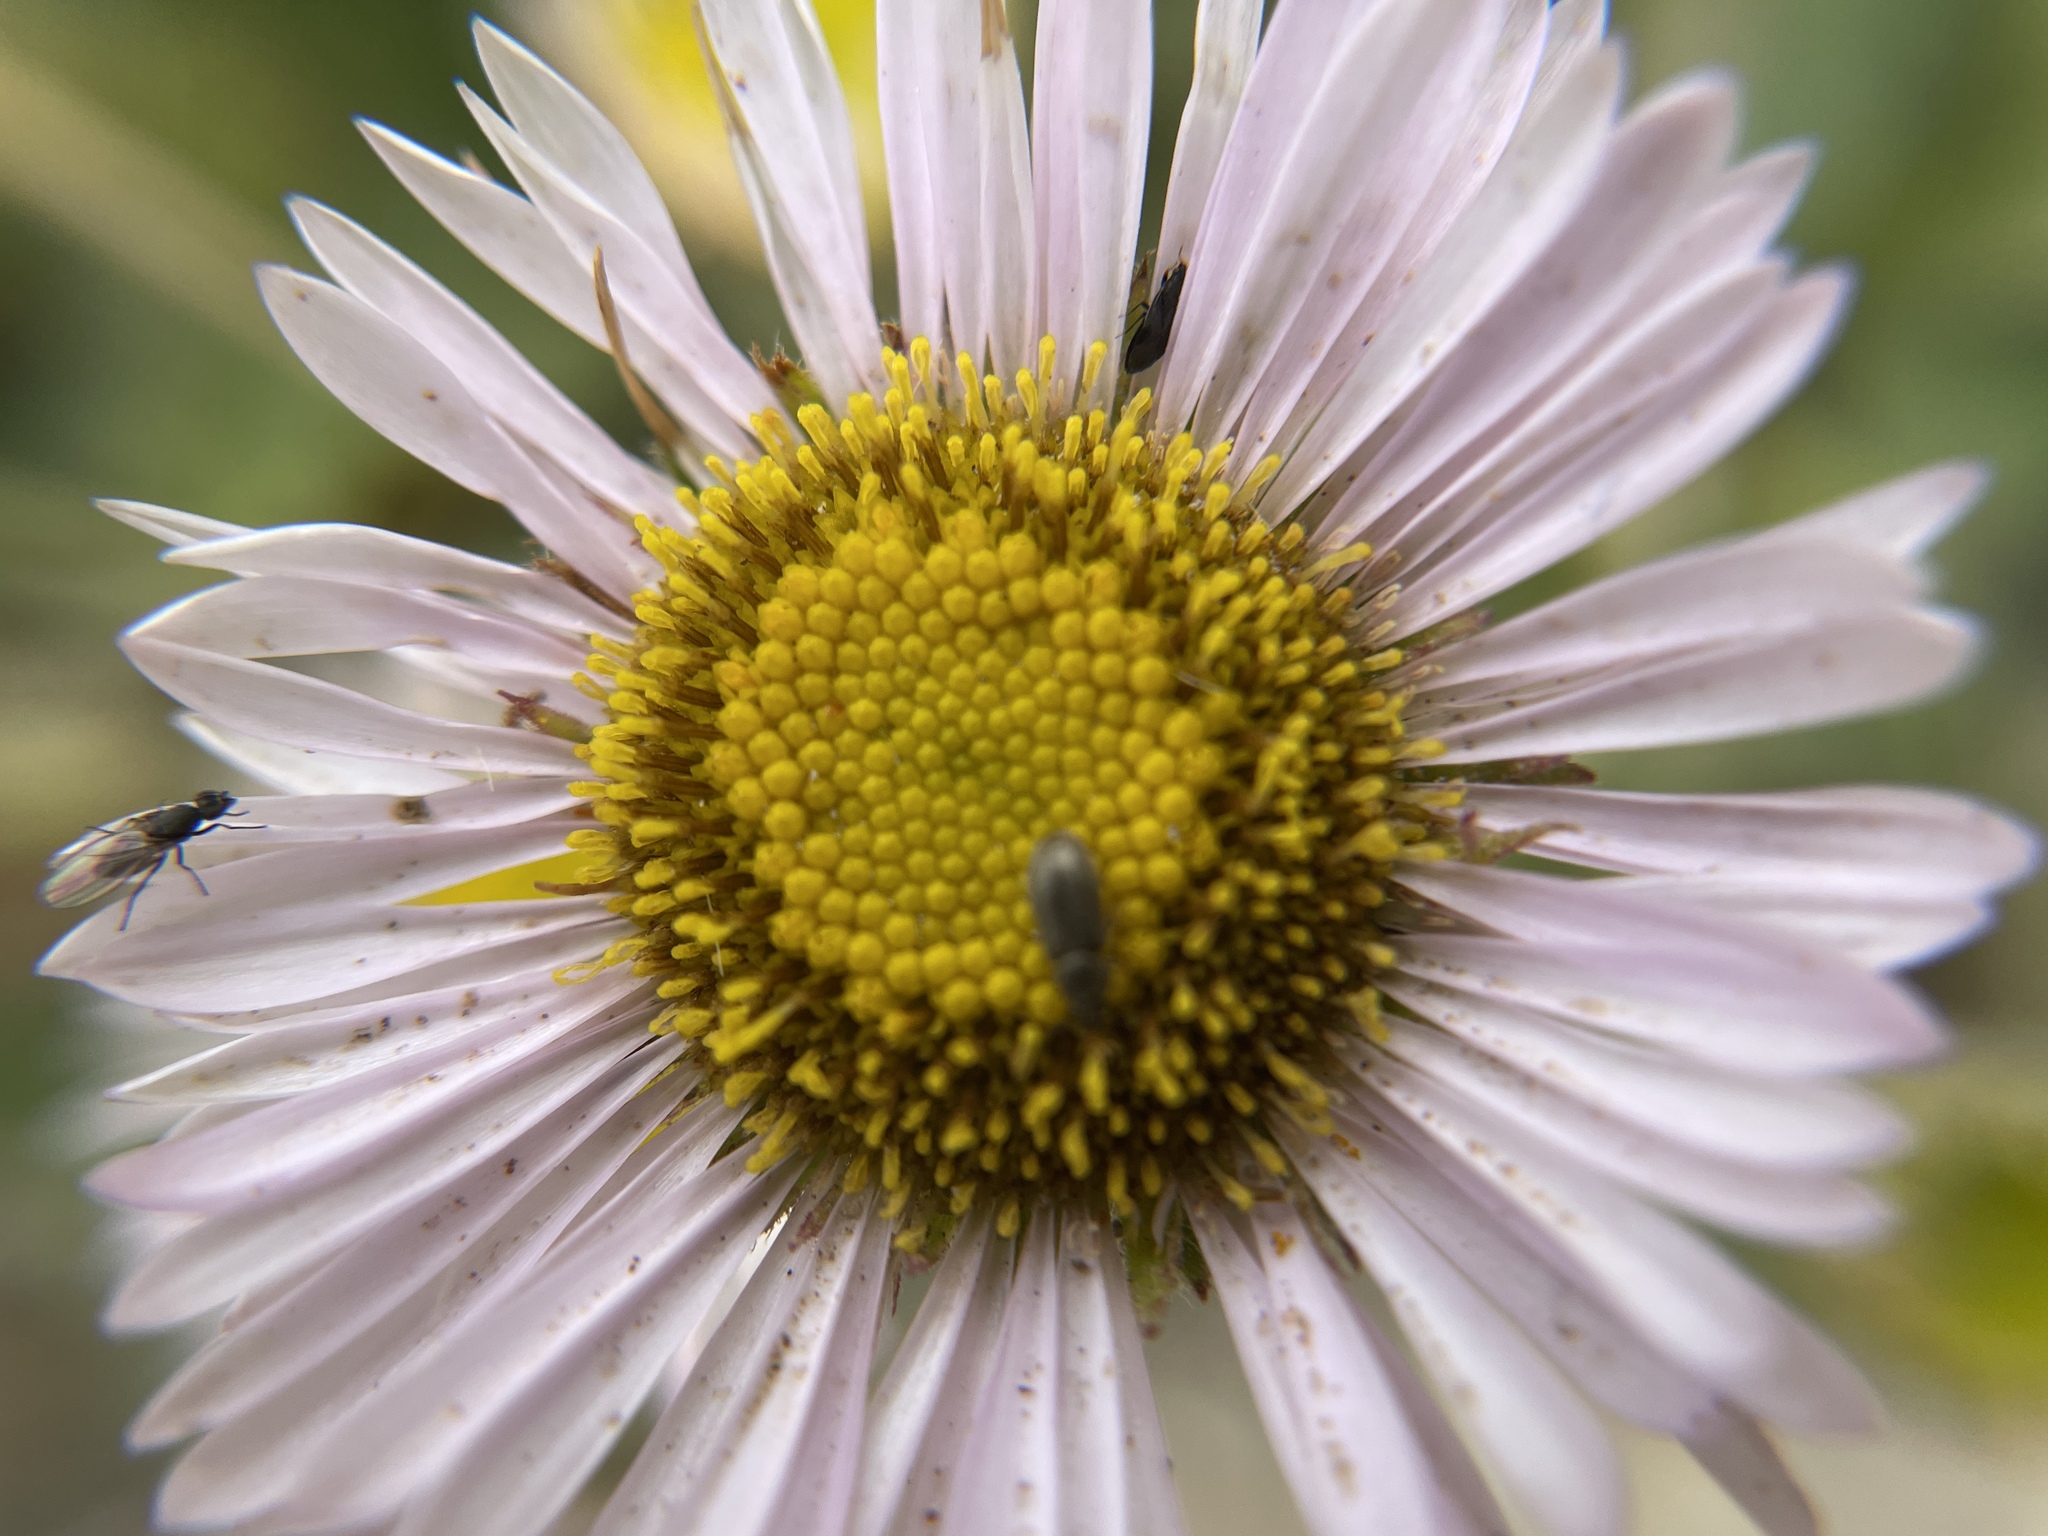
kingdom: Plantae
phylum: Tracheophyta
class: Magnoliopsida
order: Asterales
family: Asteraceae
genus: Erigeron
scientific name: Erigeron glaucus
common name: Seaside daisy
